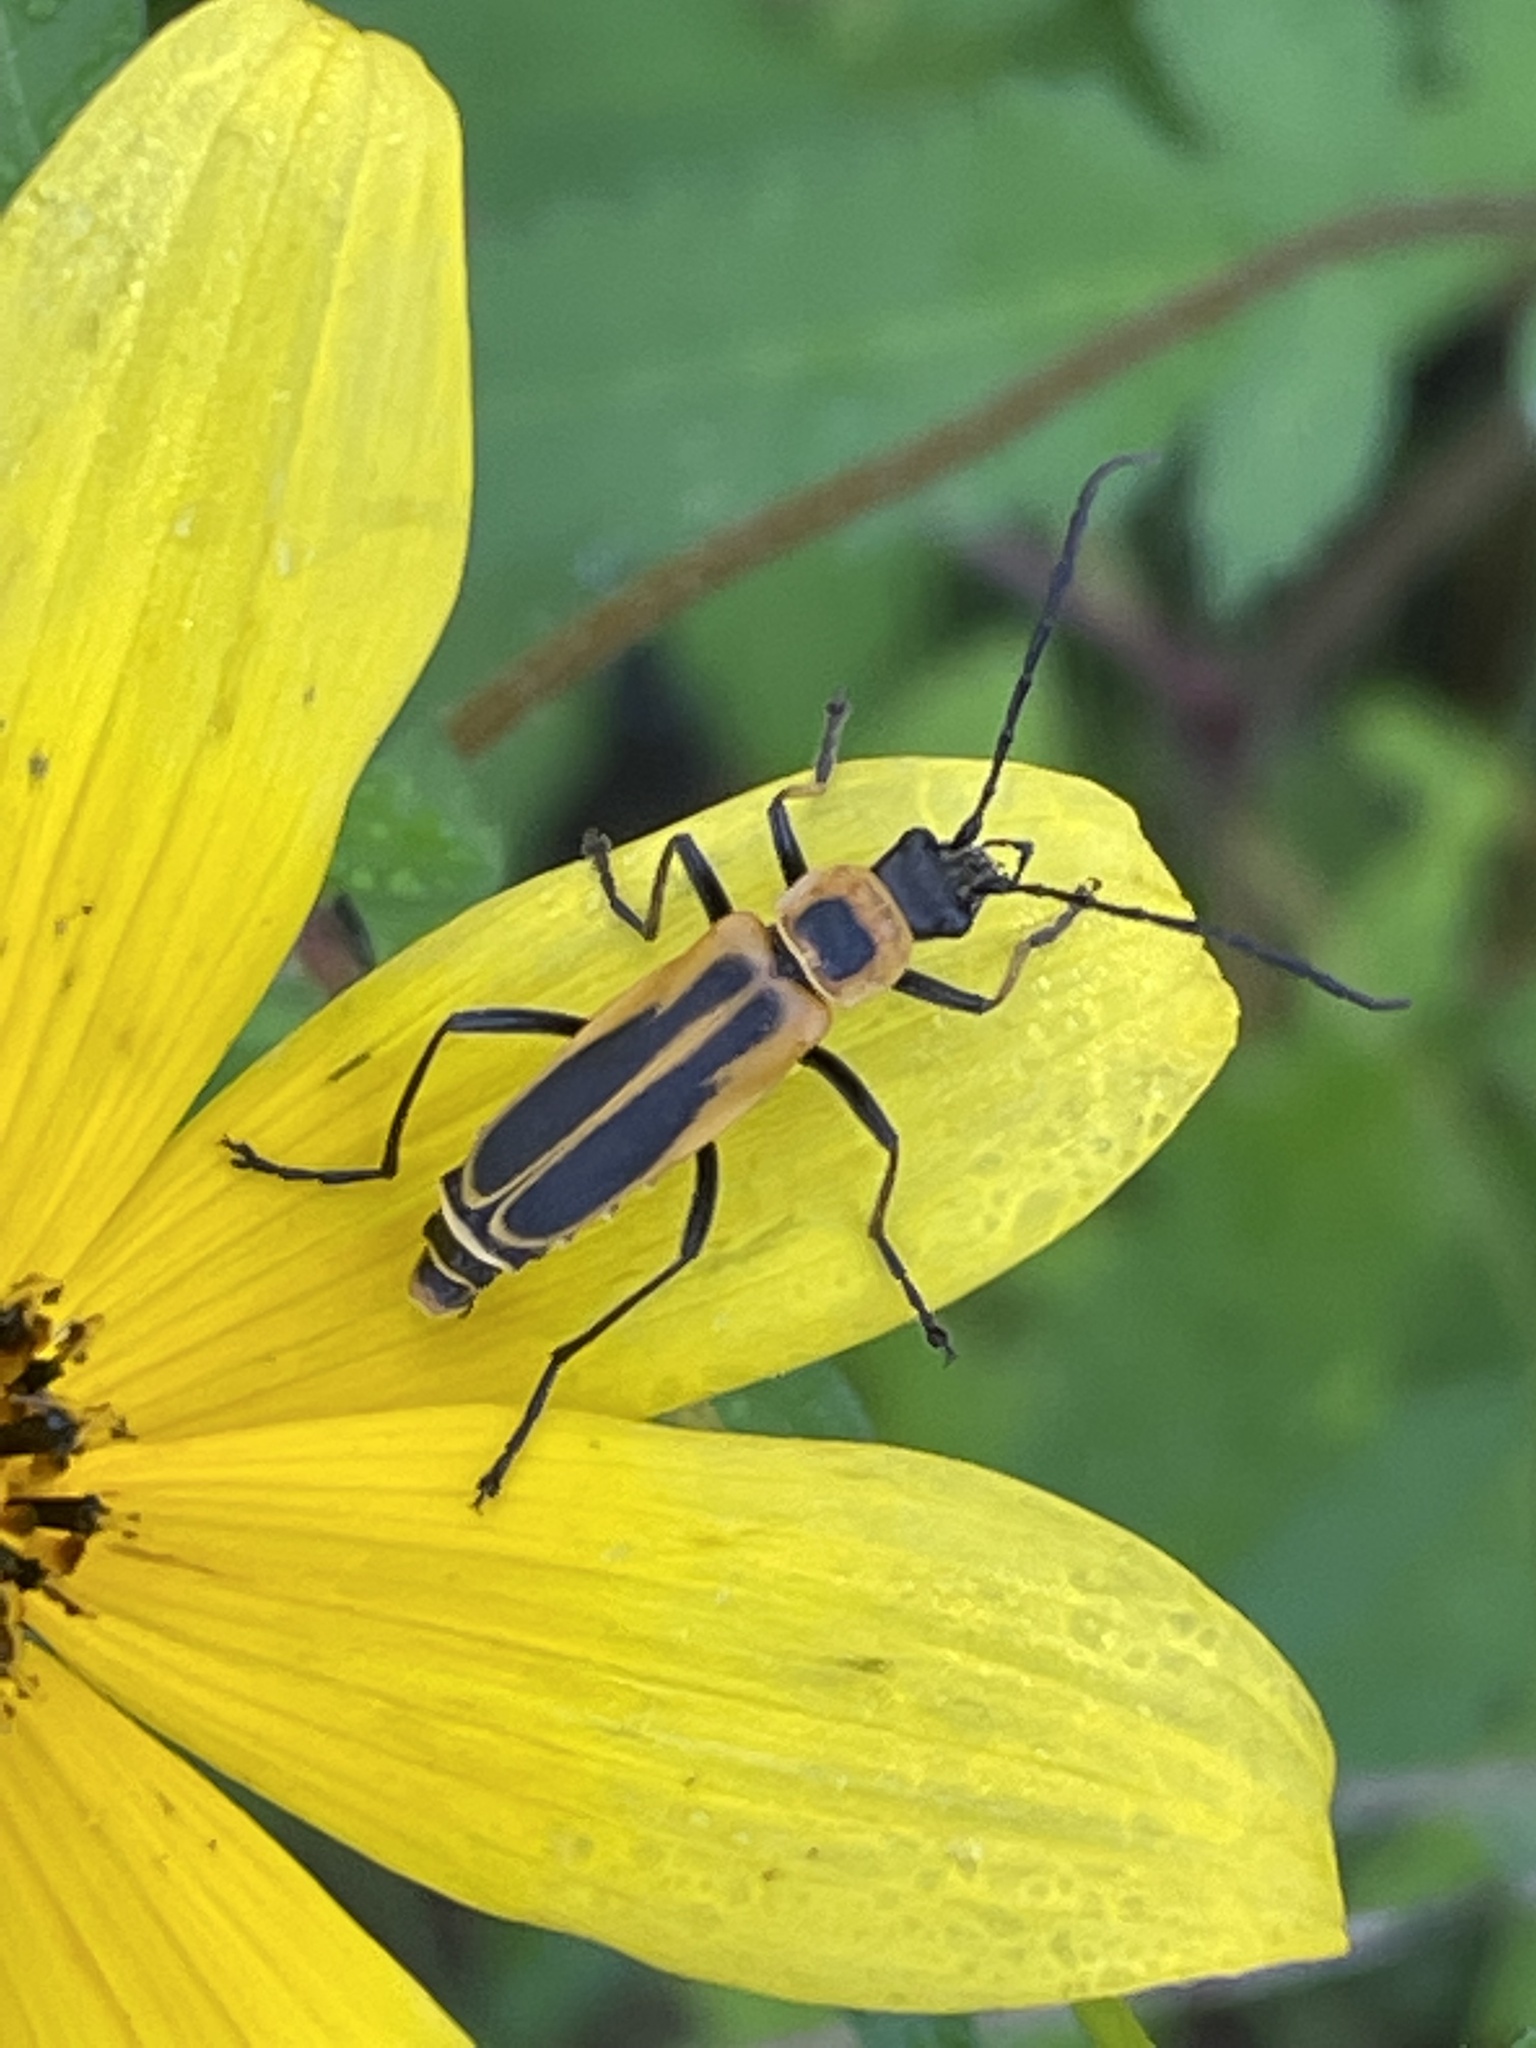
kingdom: Animalia
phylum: Arthropoda
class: Insecta
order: Coleoptera
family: Cantharidae
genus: Chauliognathus
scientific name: Chauliognathus pensylvanicus
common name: Goldenrod soldier beetle
